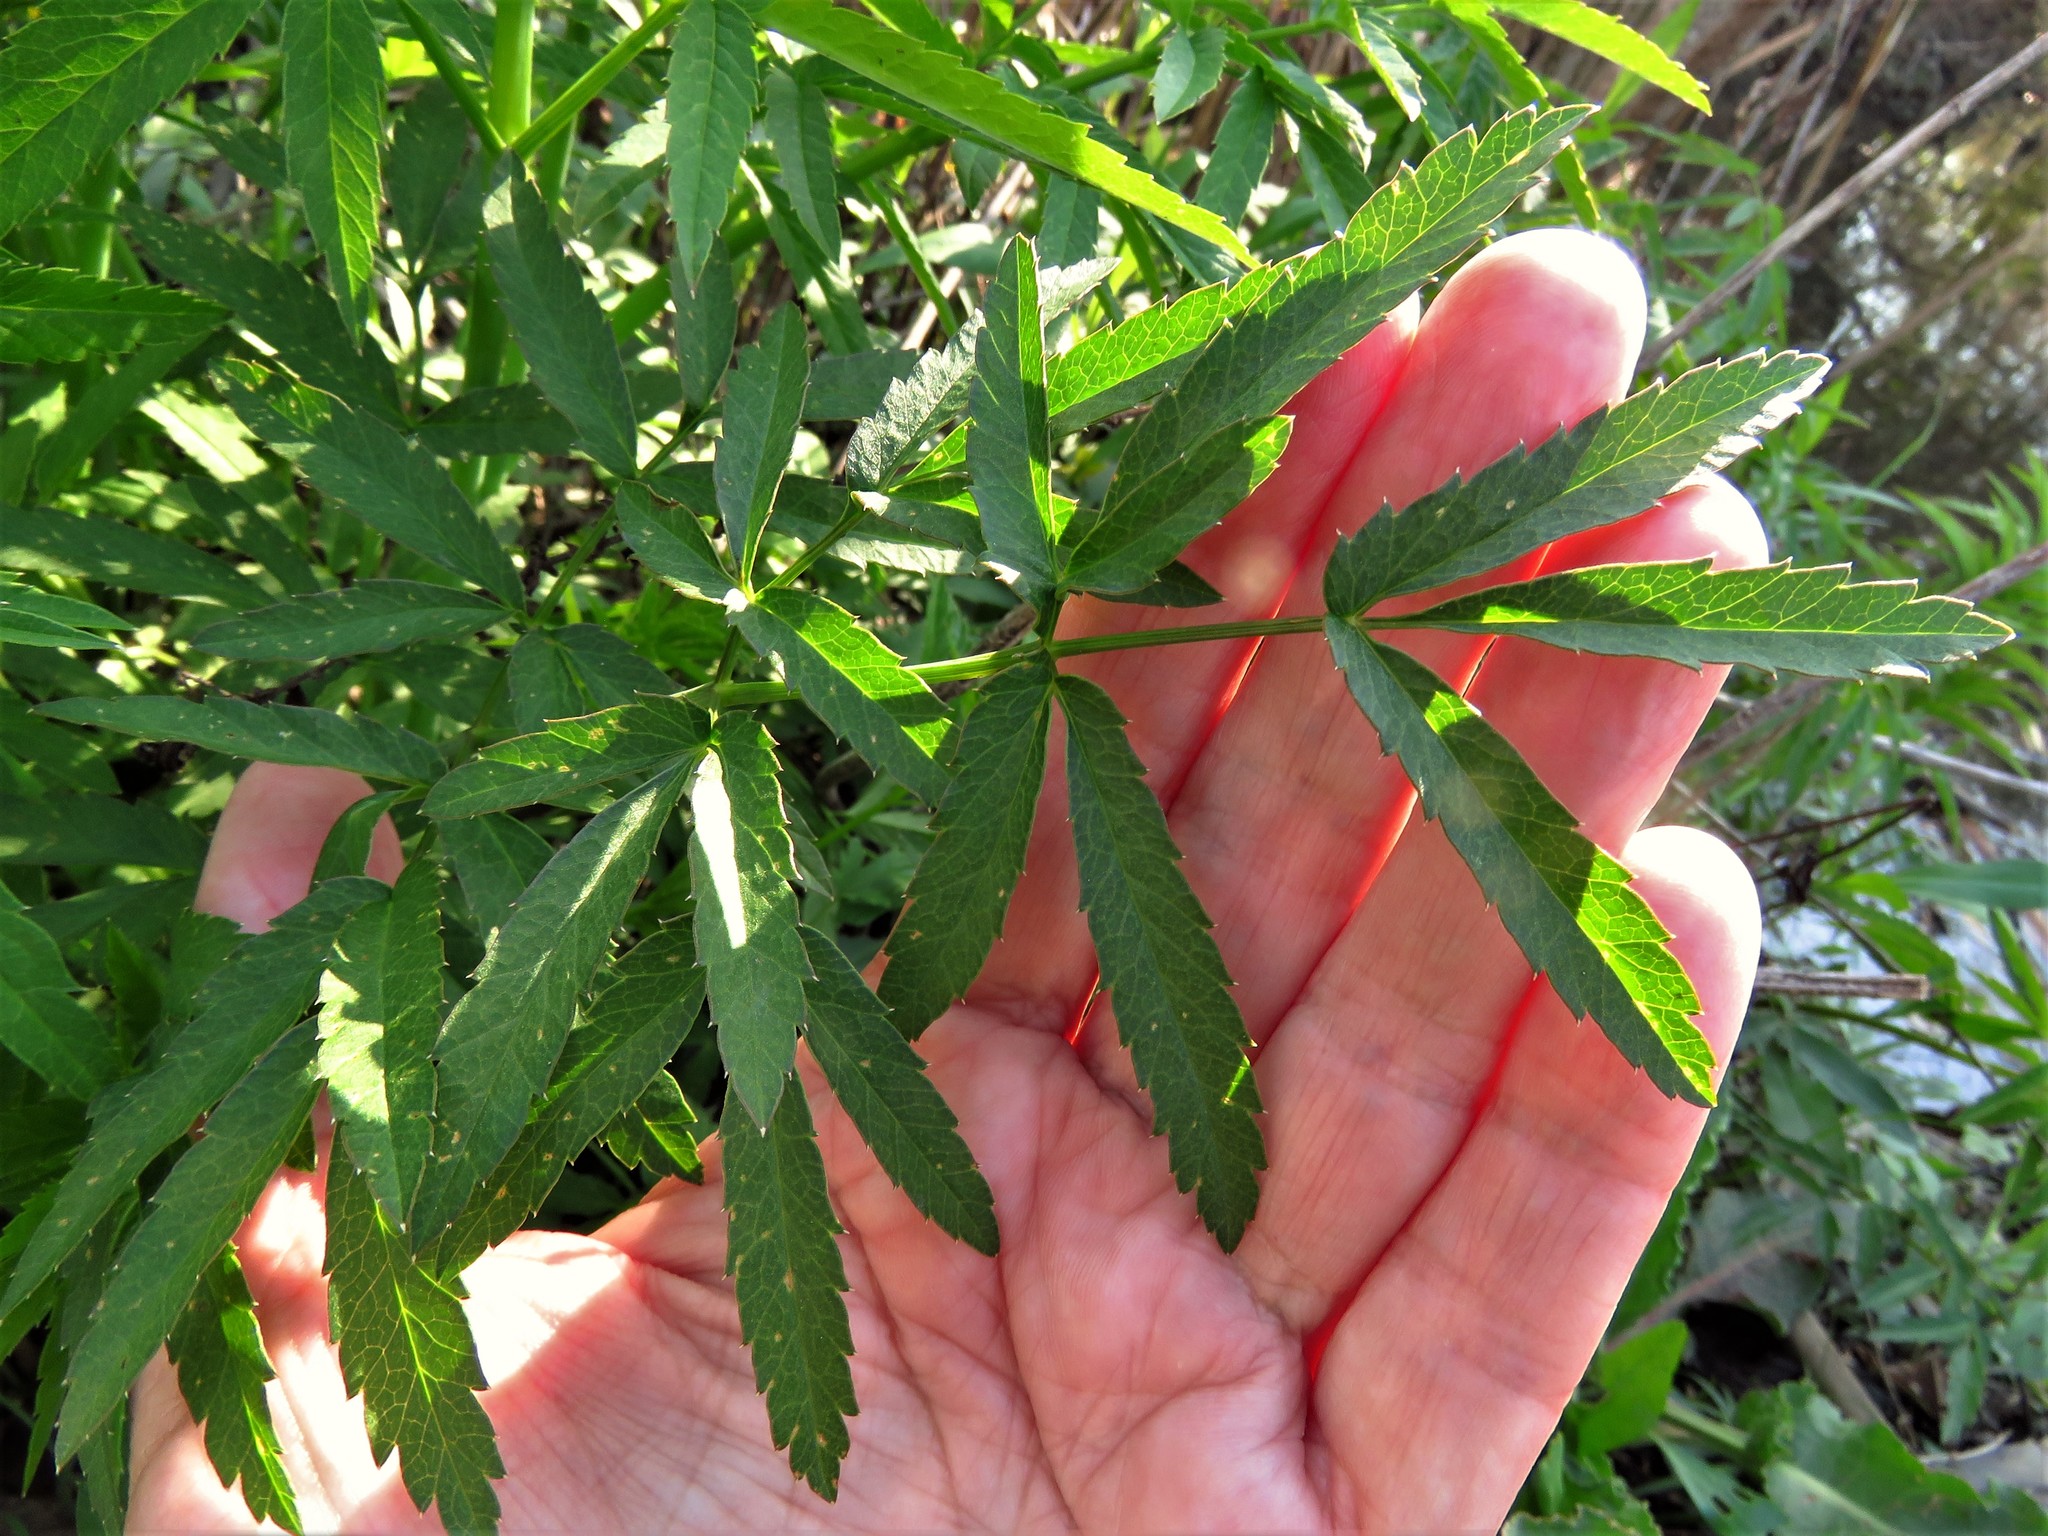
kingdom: Plantae
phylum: Tracheophyta
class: Magnoliopsida
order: Apiales
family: Apiaceae
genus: Cicuta
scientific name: Cicuta maculata
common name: Spotted cowbane
